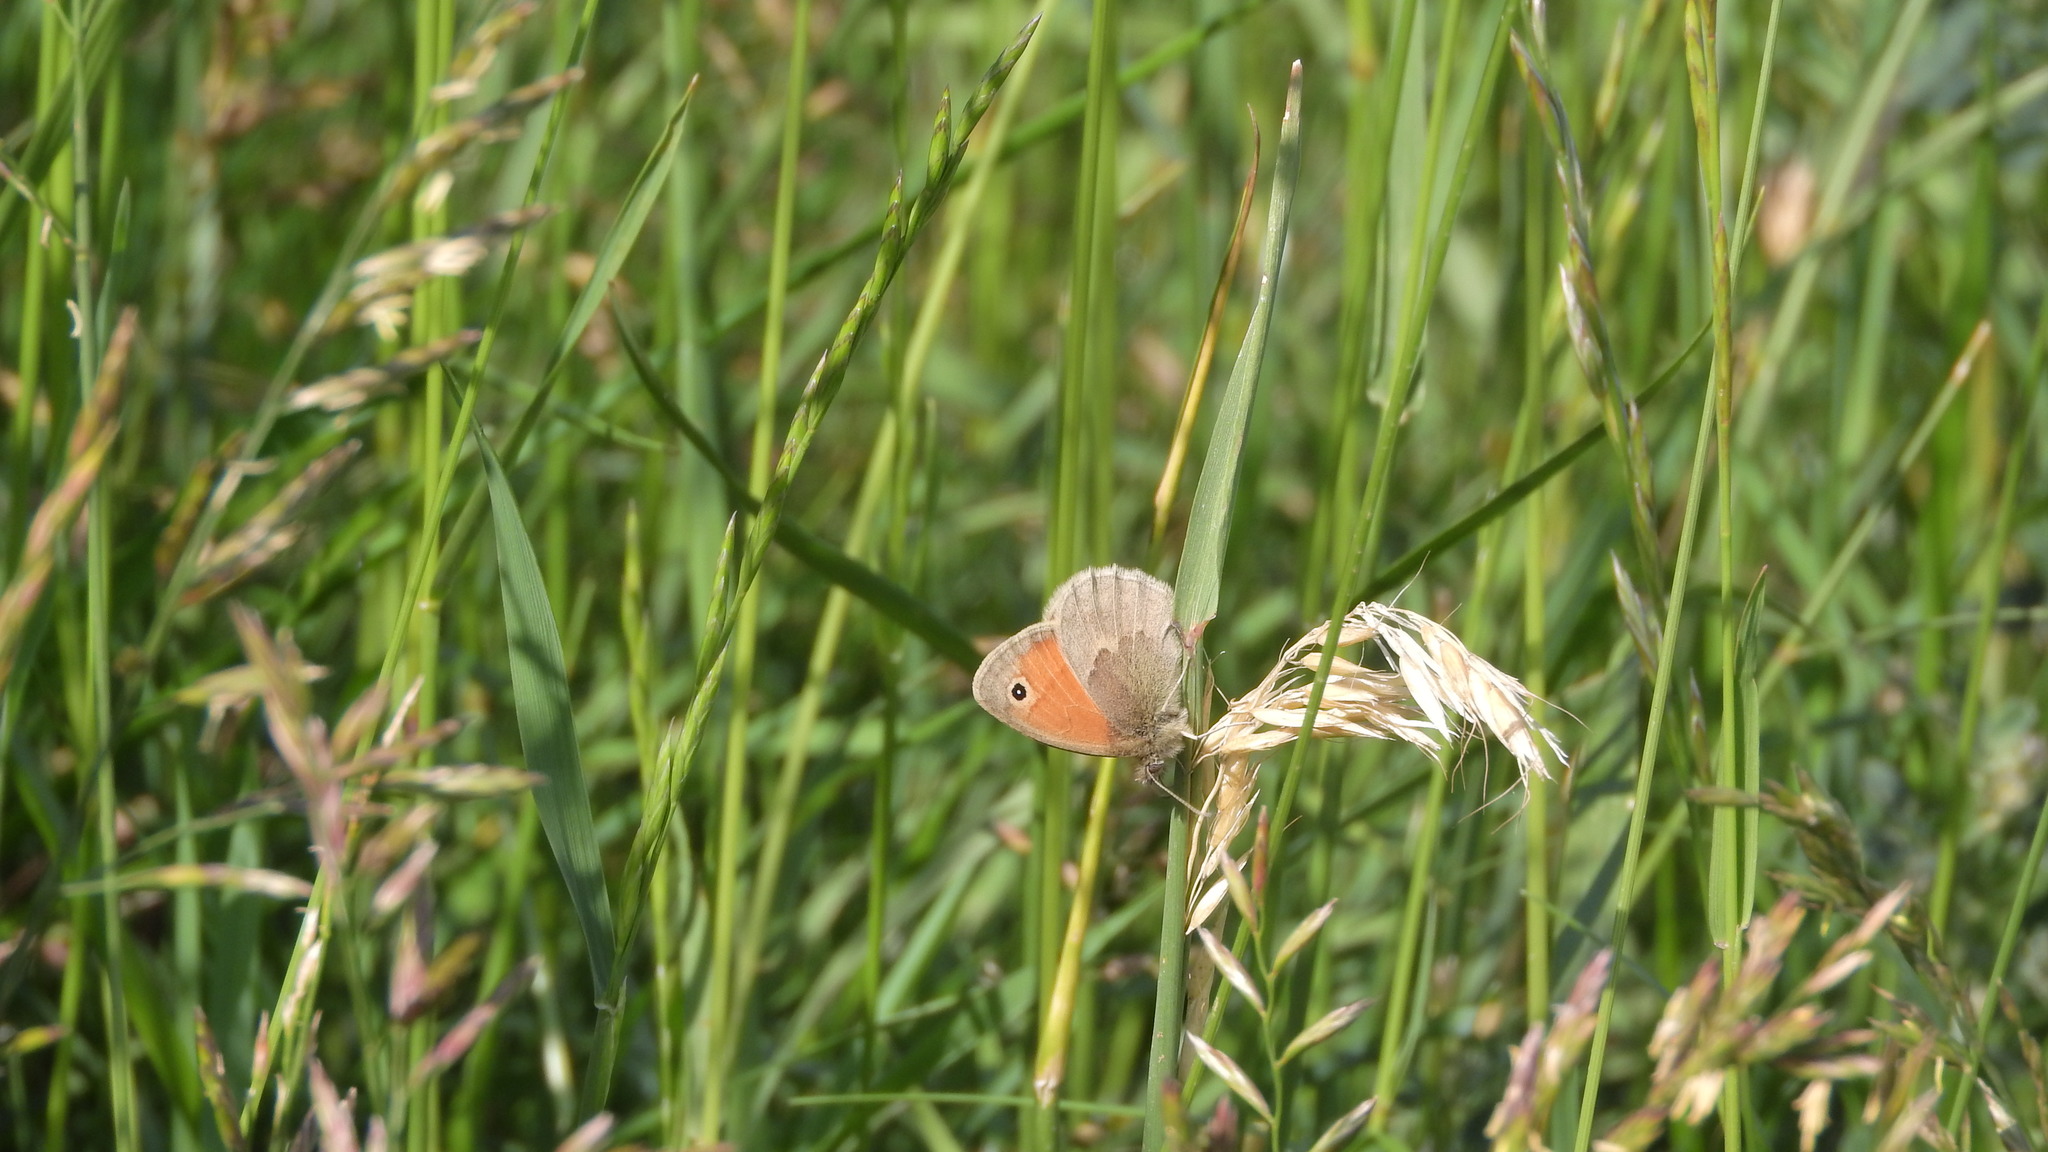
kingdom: Animalia
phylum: Arthropoda
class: Insecta
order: Lepidoptera
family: Nymphalidae
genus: Coenonympha
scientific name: Coenonympha pamphilus
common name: Small heath
